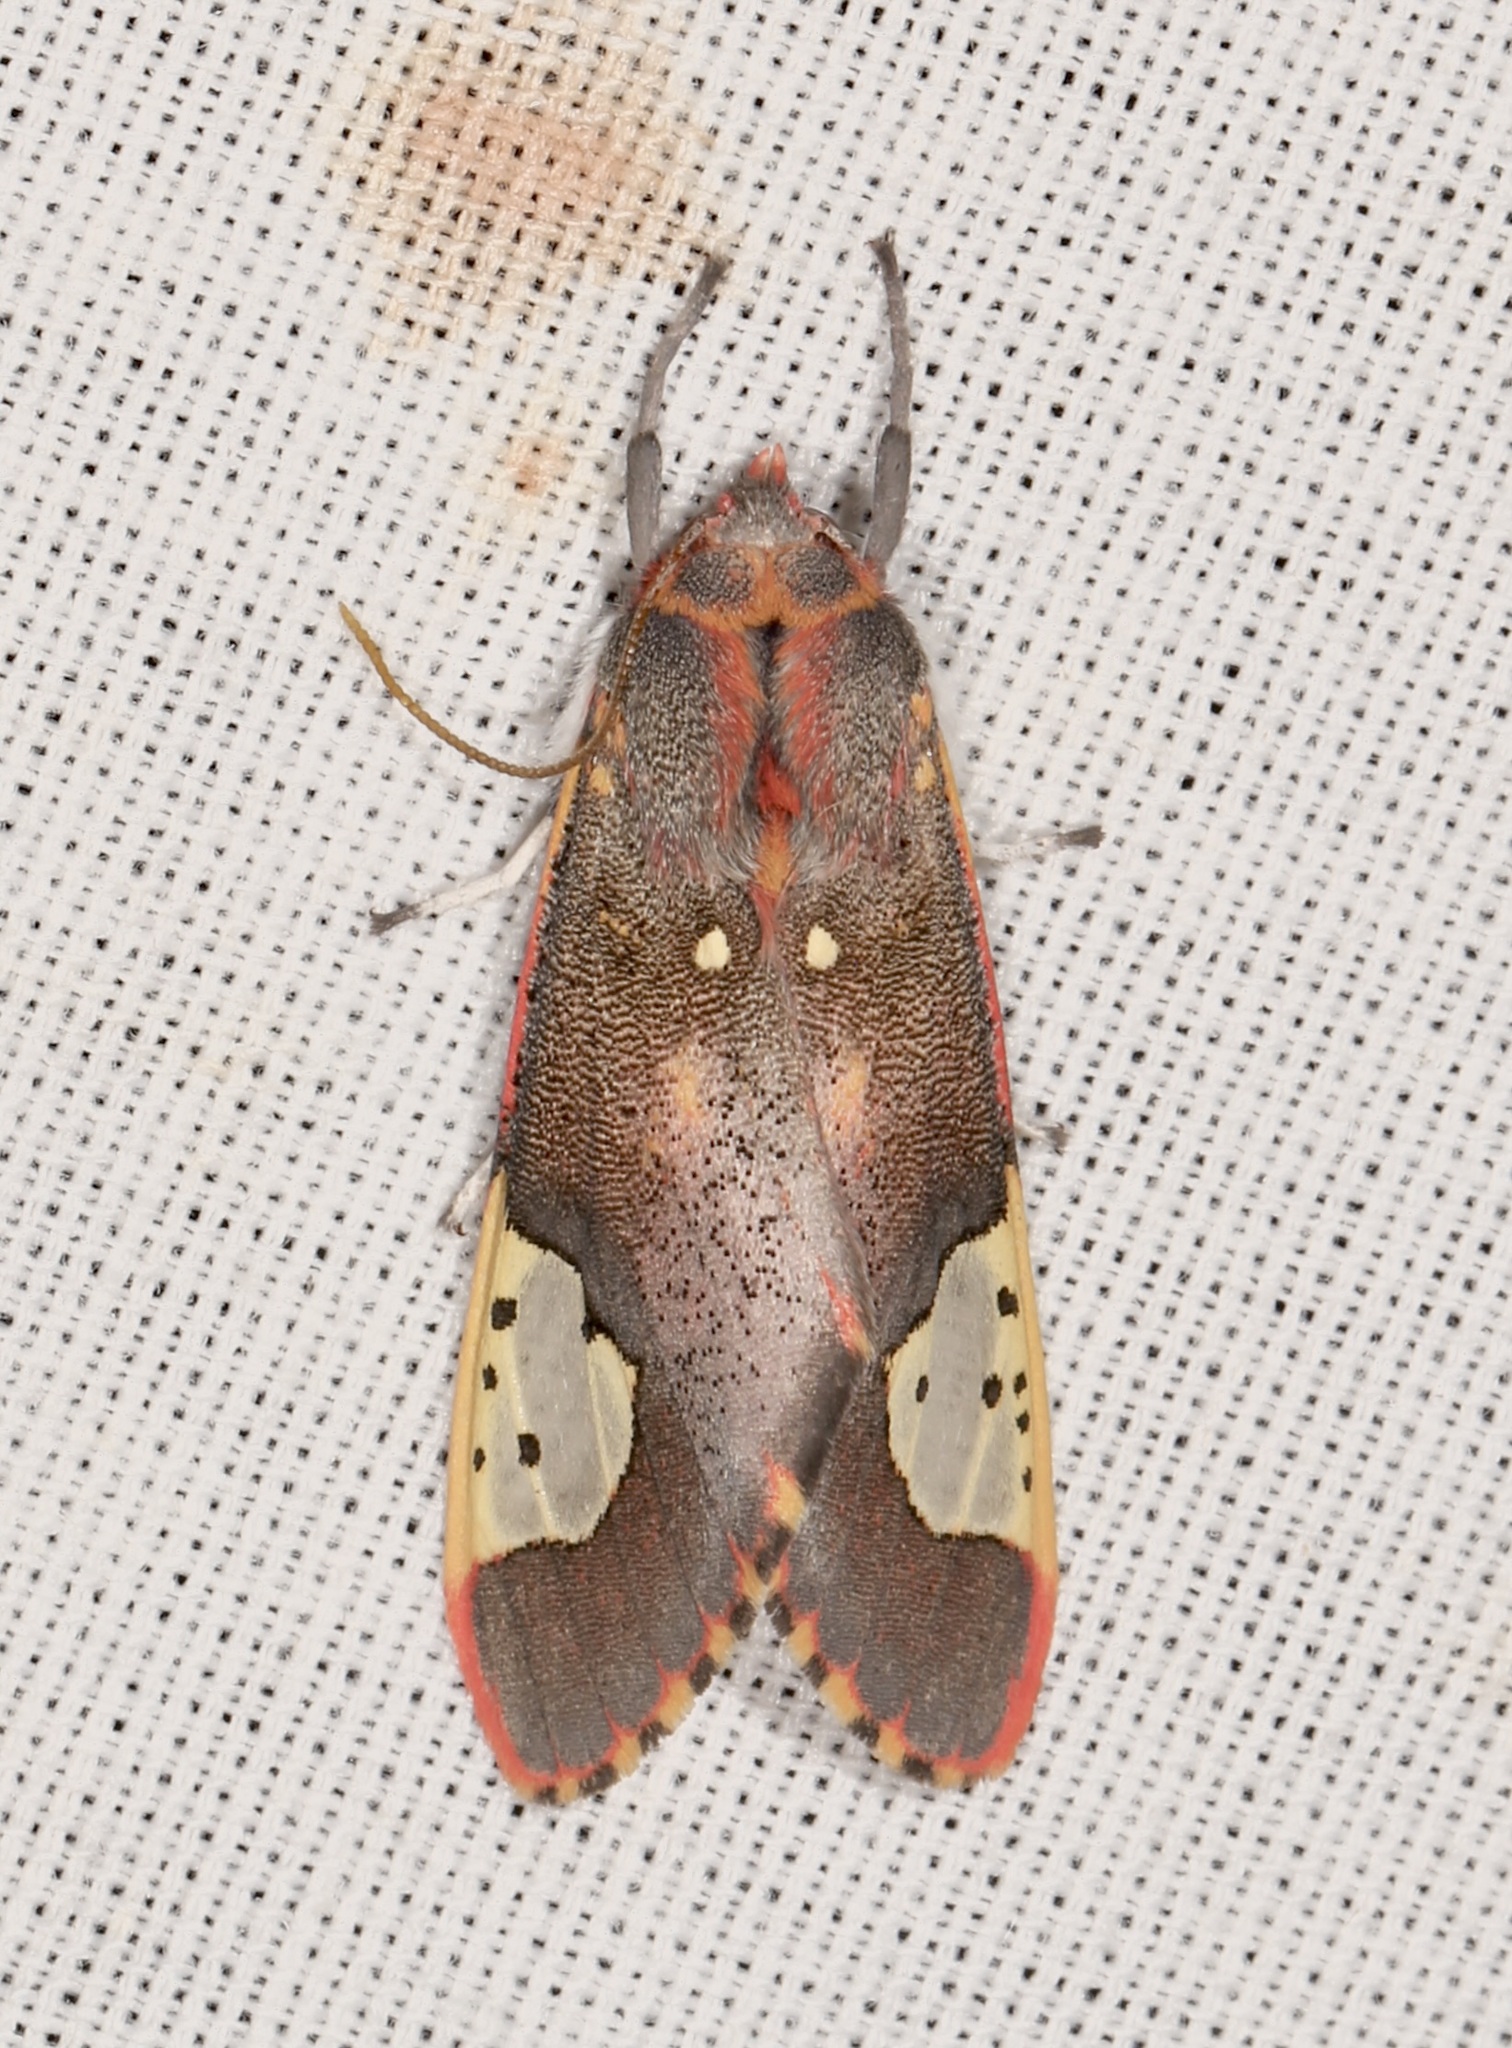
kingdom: Animalia
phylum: Arthropoda
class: Insecta
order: Lepidoptera
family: Erebidae
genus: Bertholdia
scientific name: Bertholdia trigona
